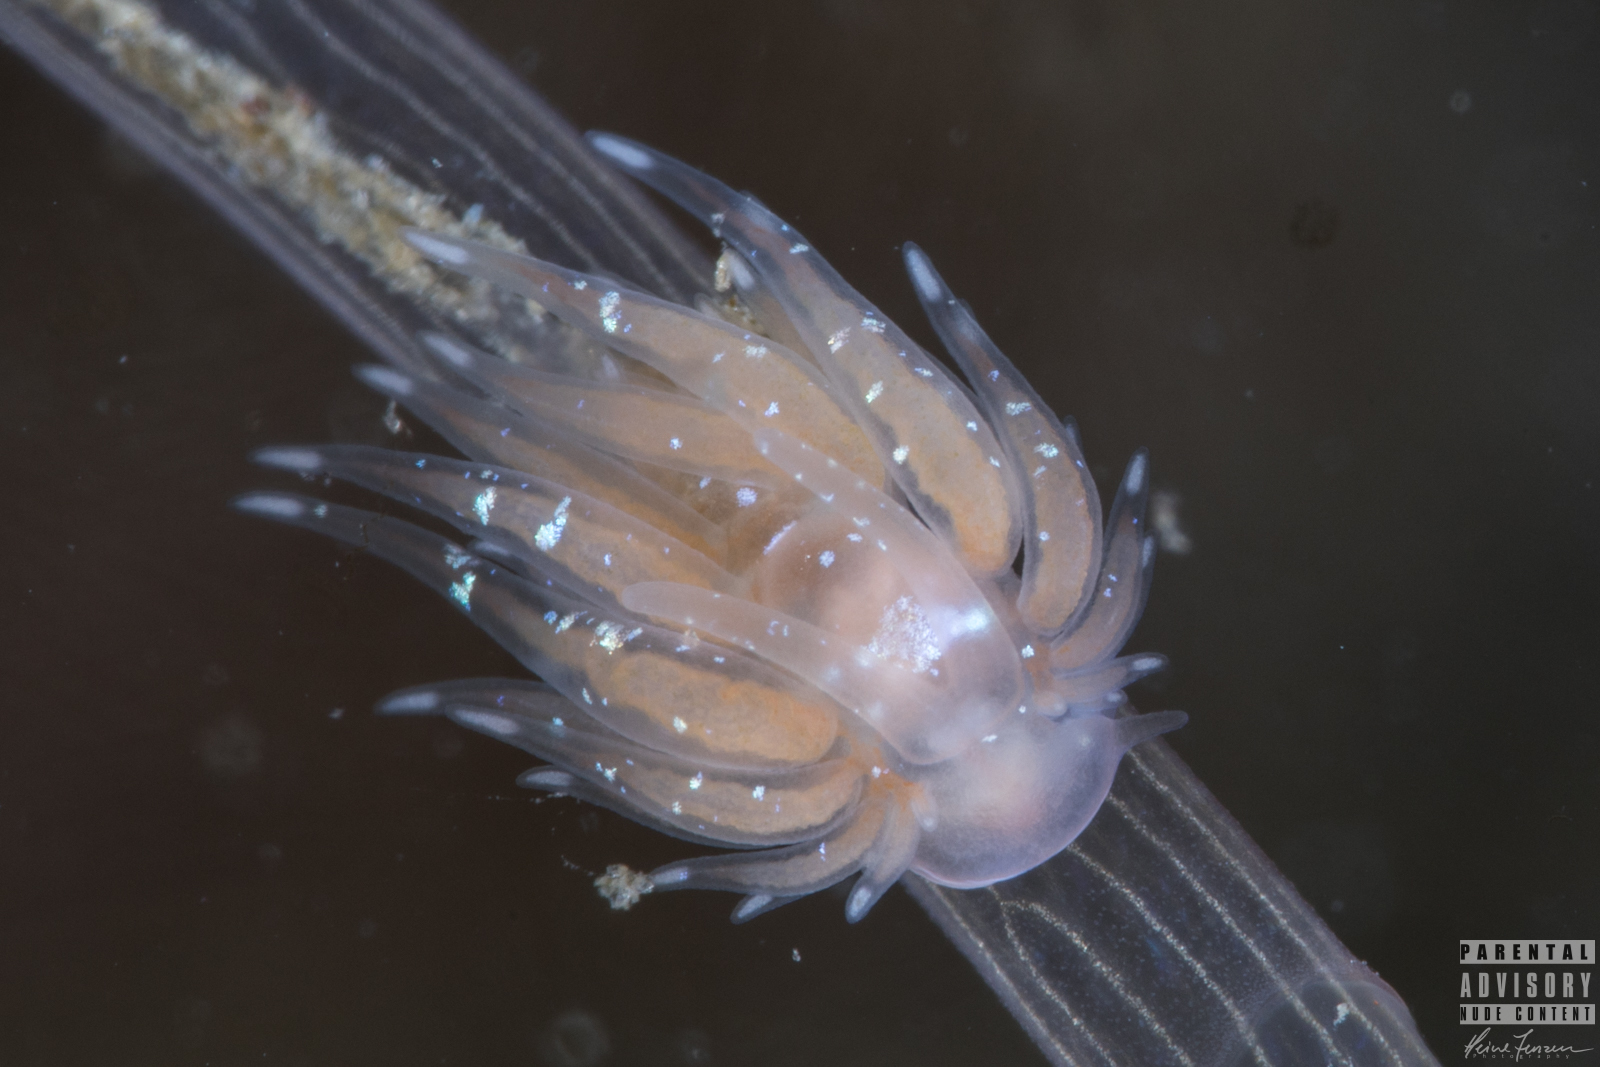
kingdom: Animalia
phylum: Mollusca
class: Gastropoda
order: Nudibranchia
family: Cumanotidae
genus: Cumanotus
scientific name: Cumanotus beaumonti
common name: Polyp aeolis
